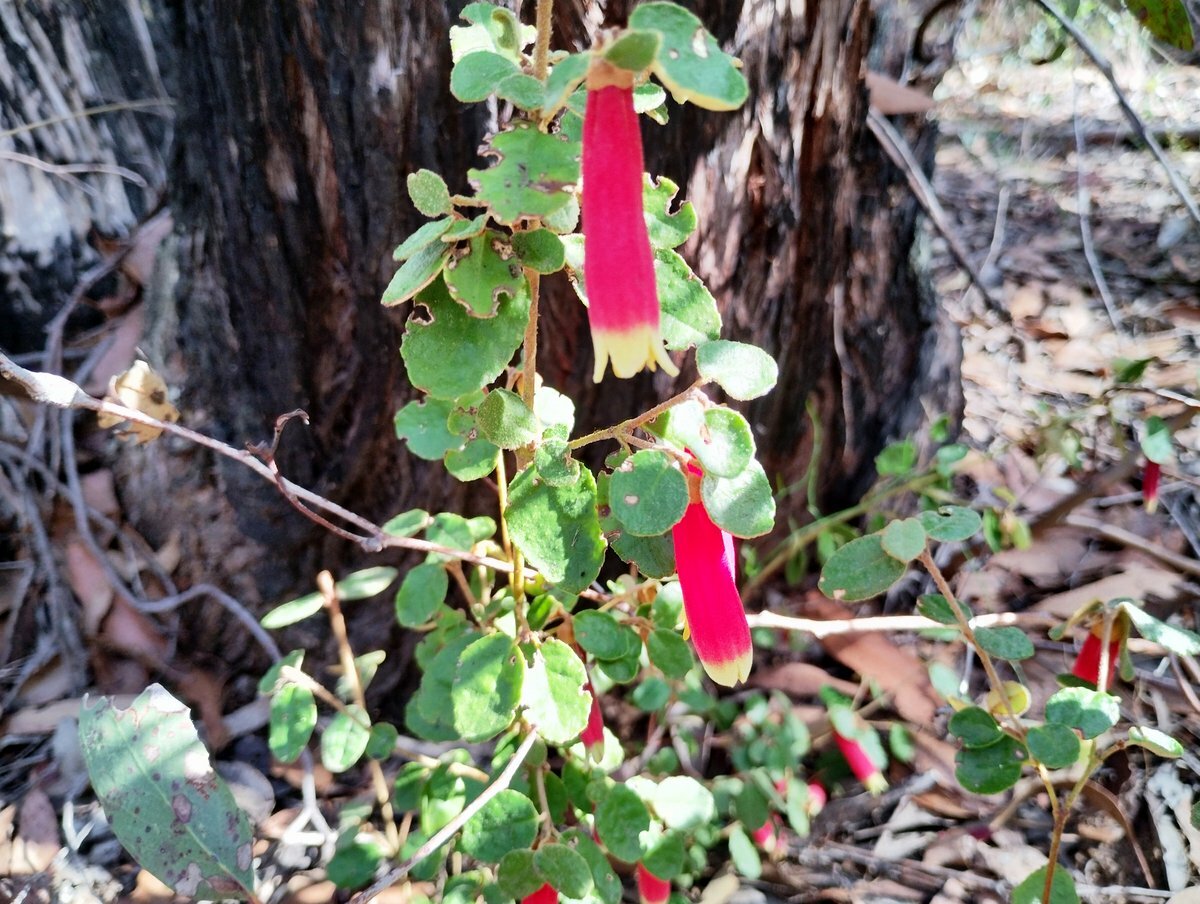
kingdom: Plantae
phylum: Tracheophyta
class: Magnoliopsida
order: Sapindales
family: Rutaceae
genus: Correa
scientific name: Correa reflexa
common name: Common correa
